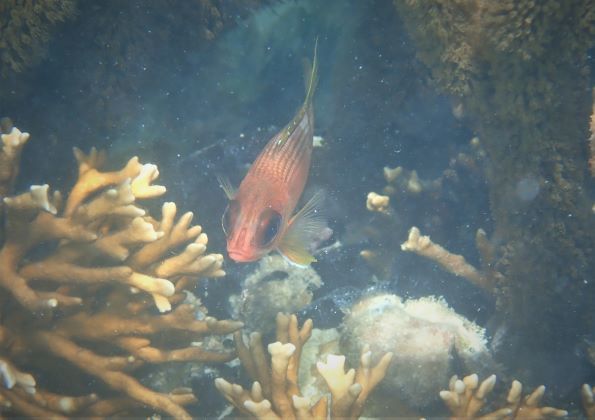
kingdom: Animalia
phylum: Chordata
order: Beryciformes
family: Holocentridae
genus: Holocentrus
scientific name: Holocentrus rufus
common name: Longspine squirrelfish
